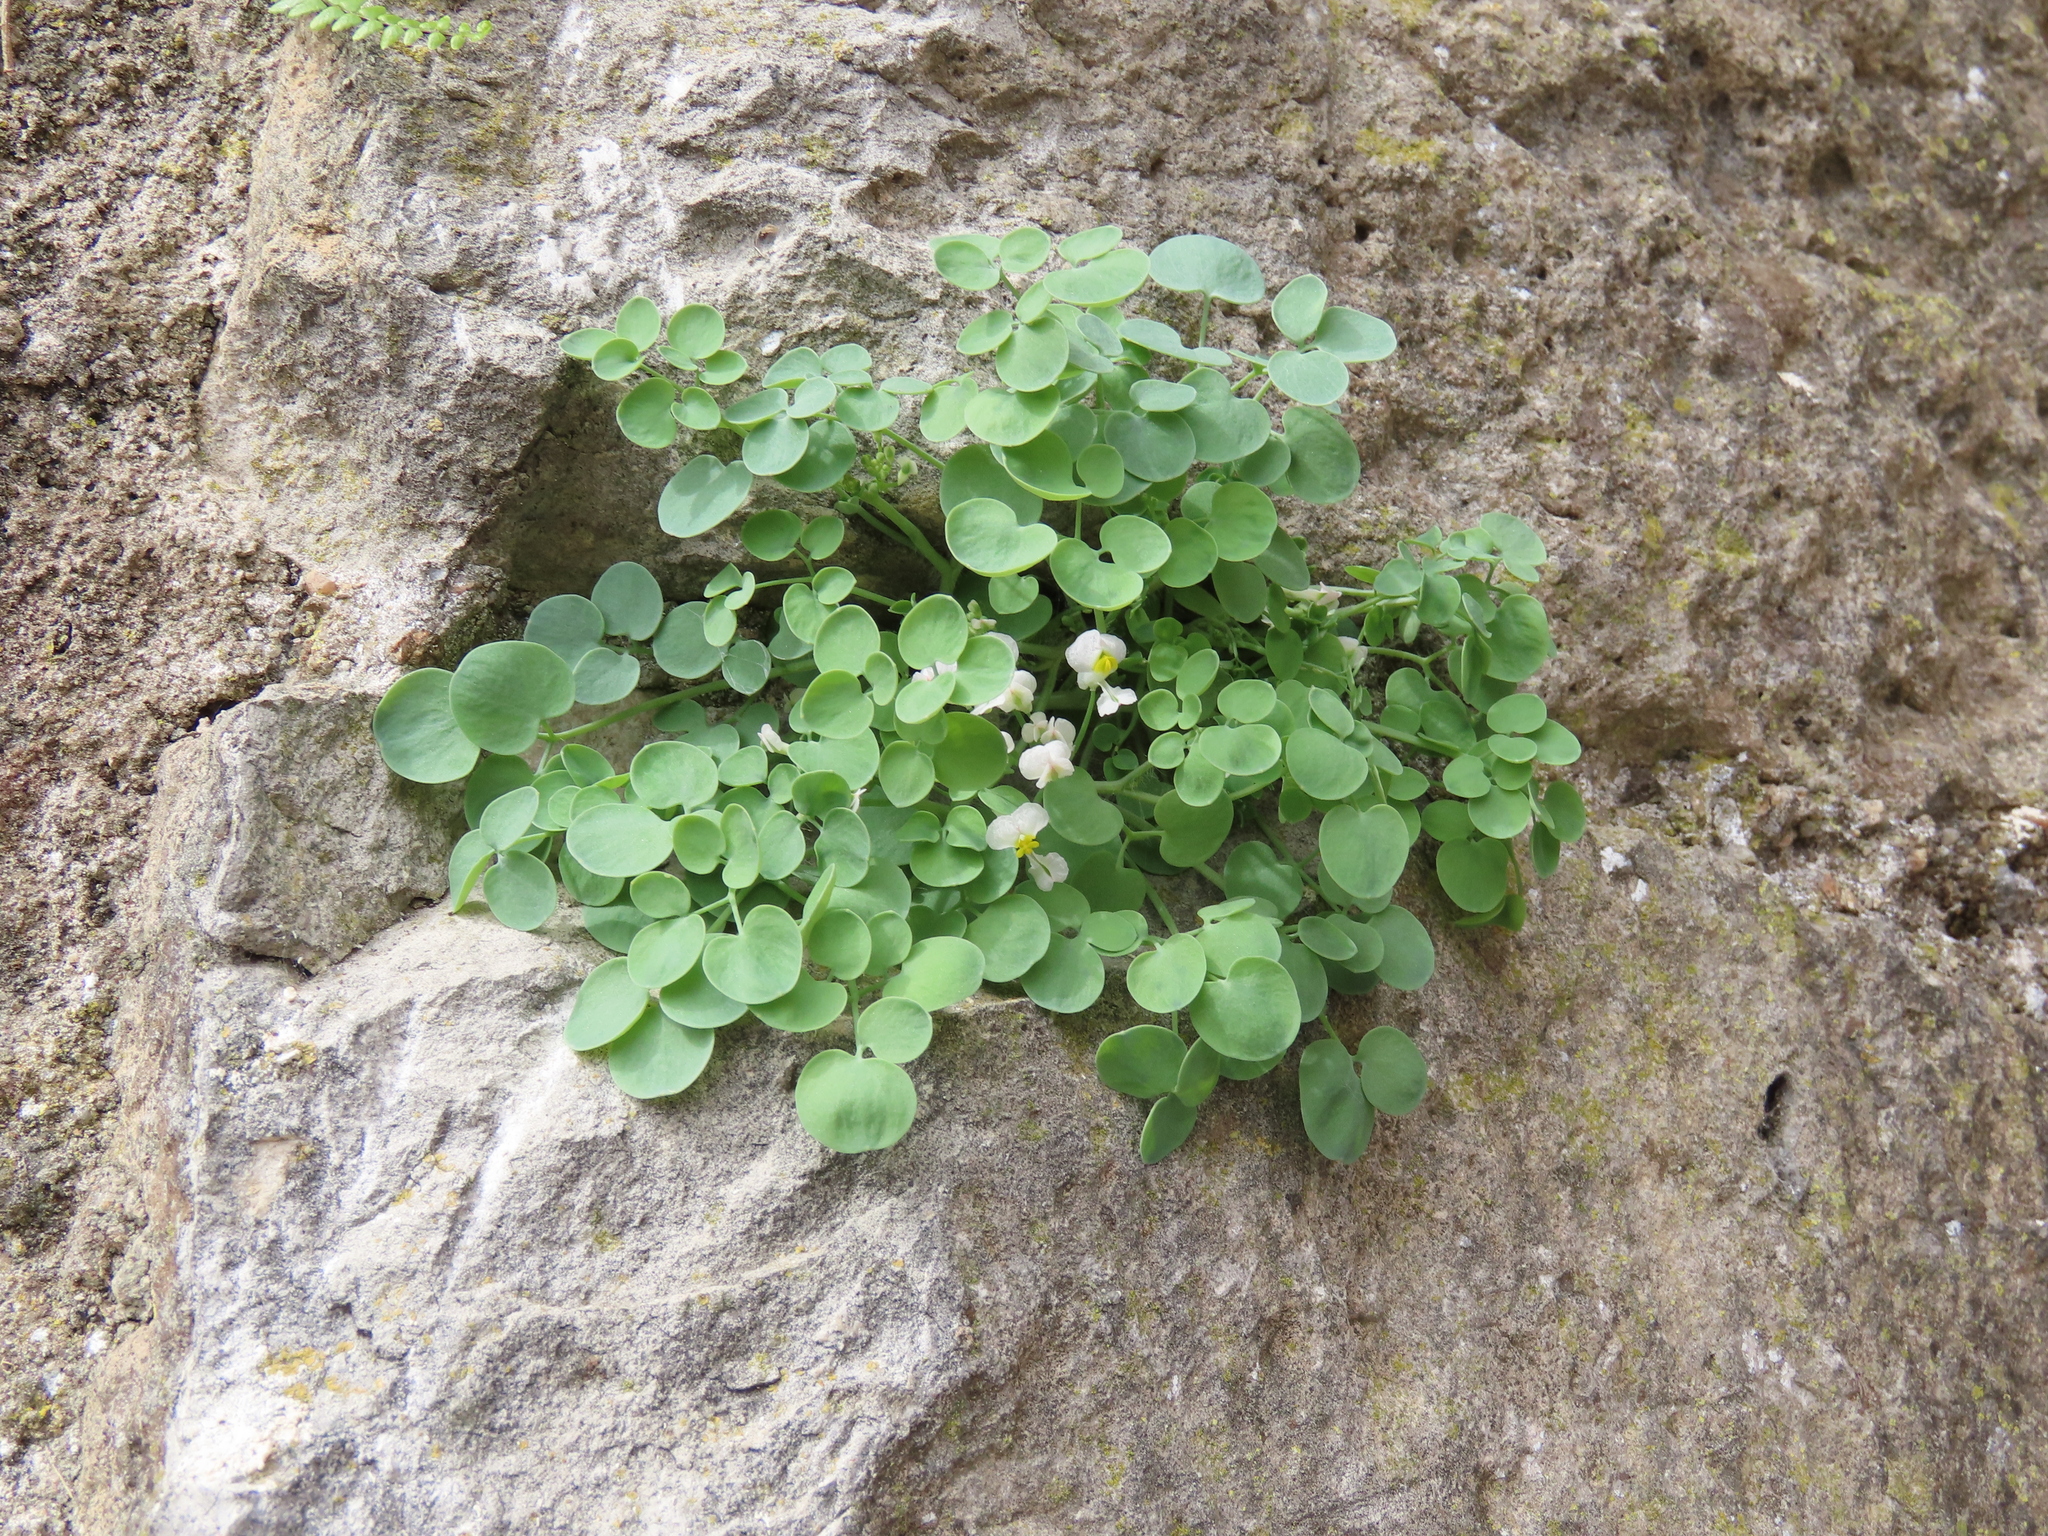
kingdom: Plantae
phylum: Tracheophyta
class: Magnoliopsida
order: Ranunculales
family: Papaveraceae
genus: Sarcocapnos
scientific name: Sarcocapnos enneaphylla
